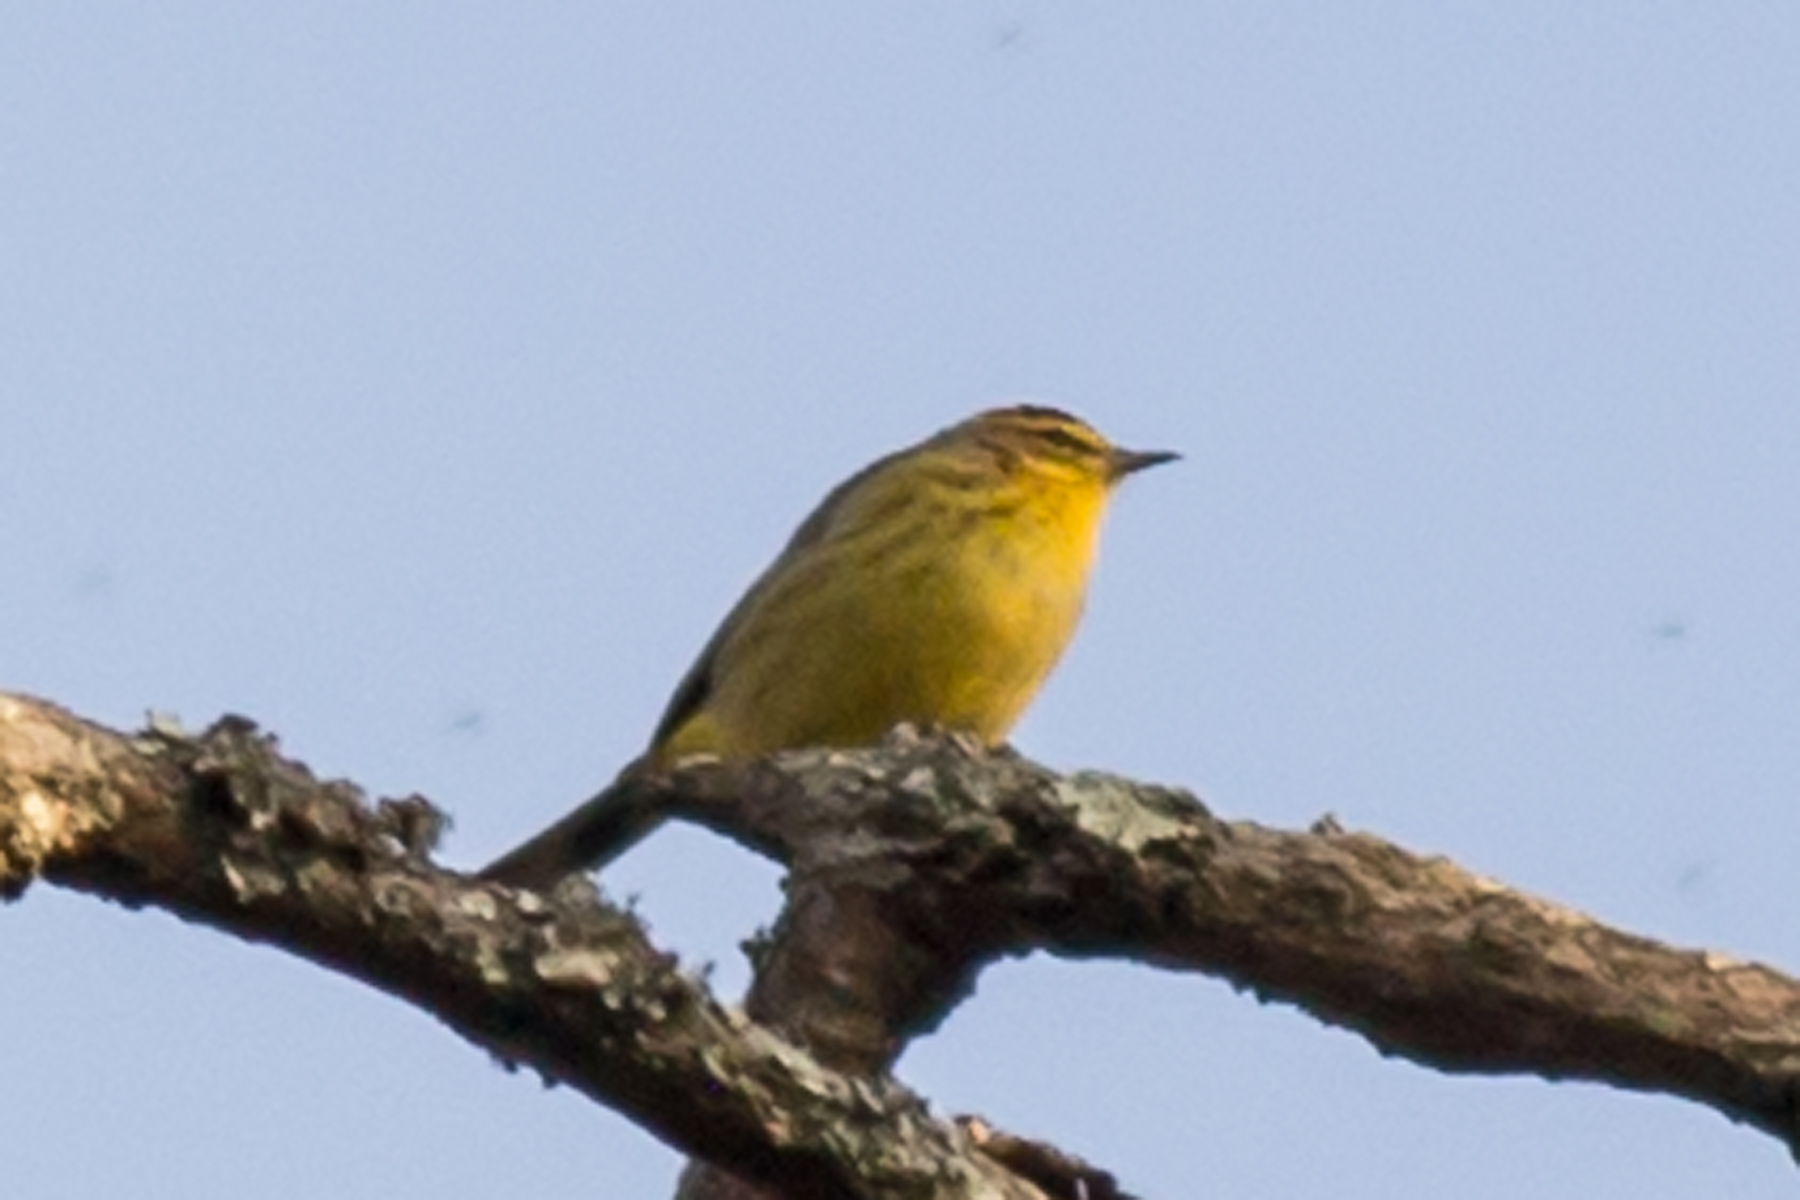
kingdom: Animalia
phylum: Chordata
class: Aves
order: Passeriformes
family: Parulidae
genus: Setophaga
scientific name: Setophaga palmarum
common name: Palm warbler
